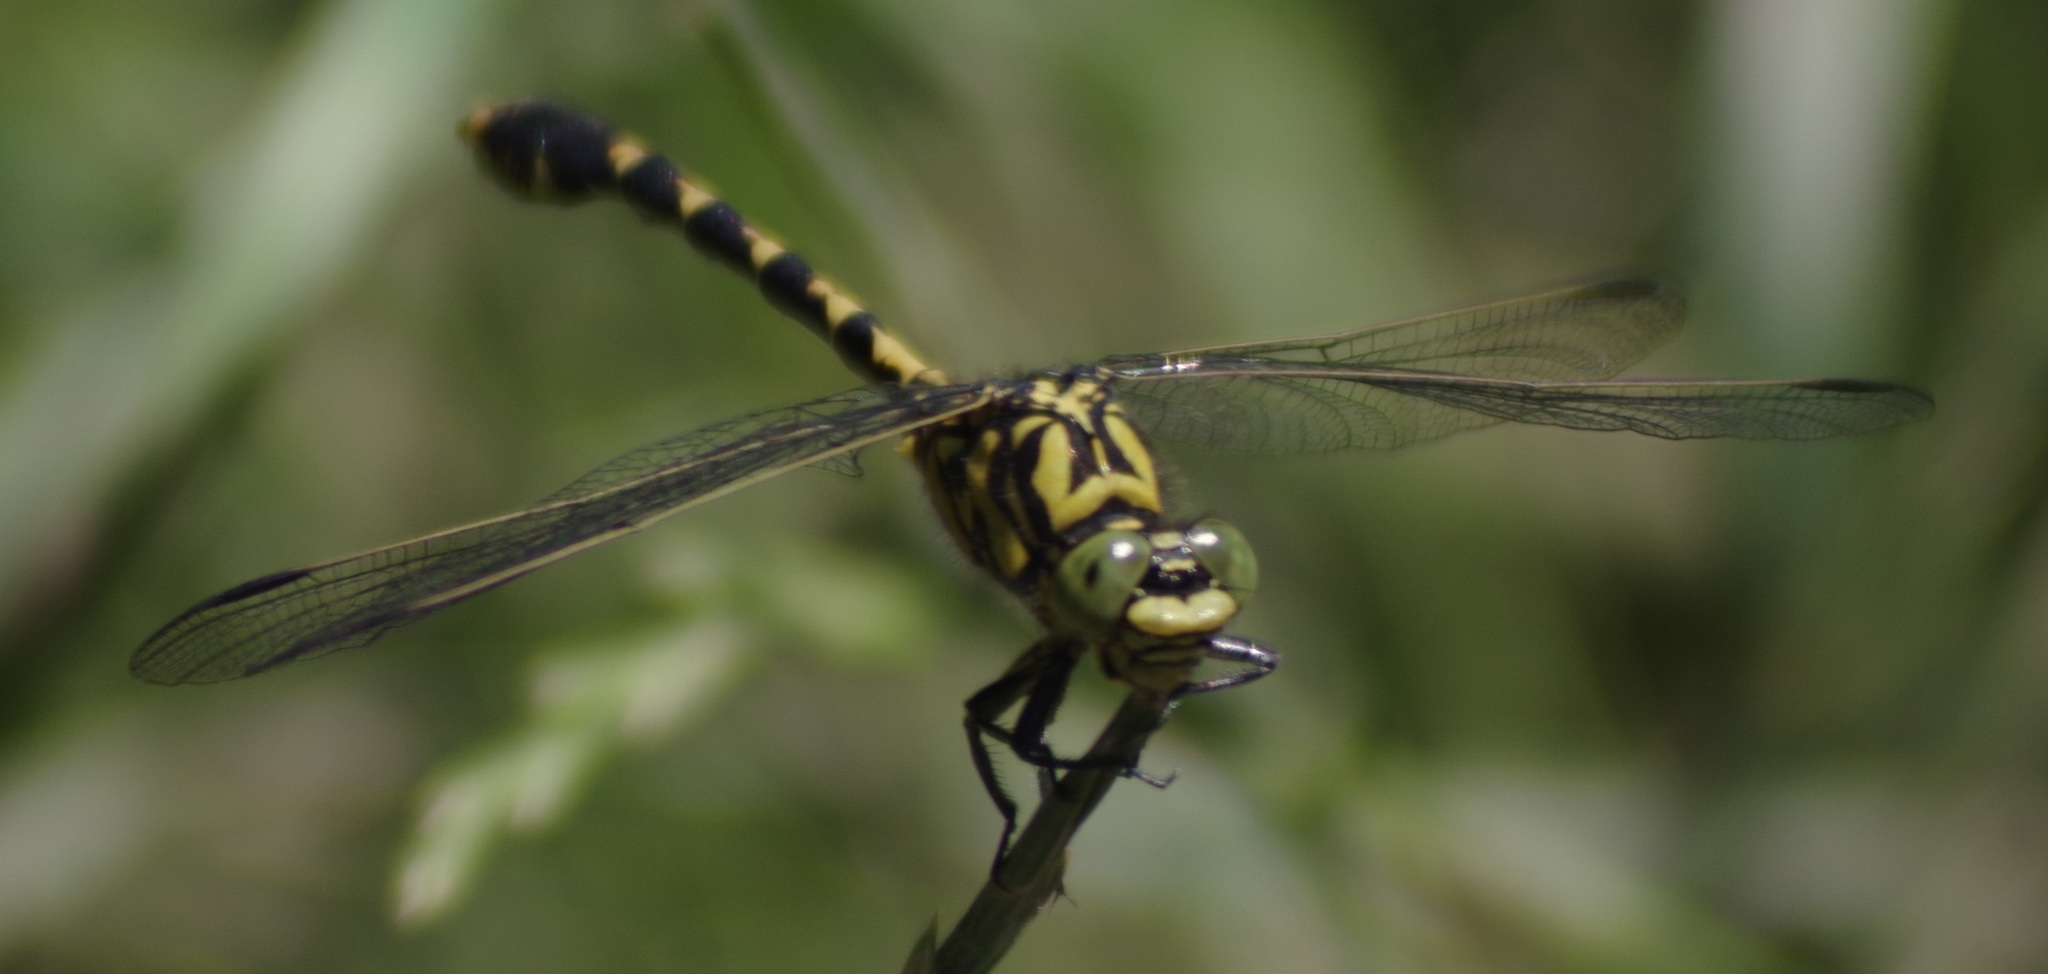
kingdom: Animalia
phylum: Arthropoda
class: Insecta
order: Odonata
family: Gomphidae
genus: Onychogomphus
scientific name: Onychogomphus forcipatus
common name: Small pincertail
